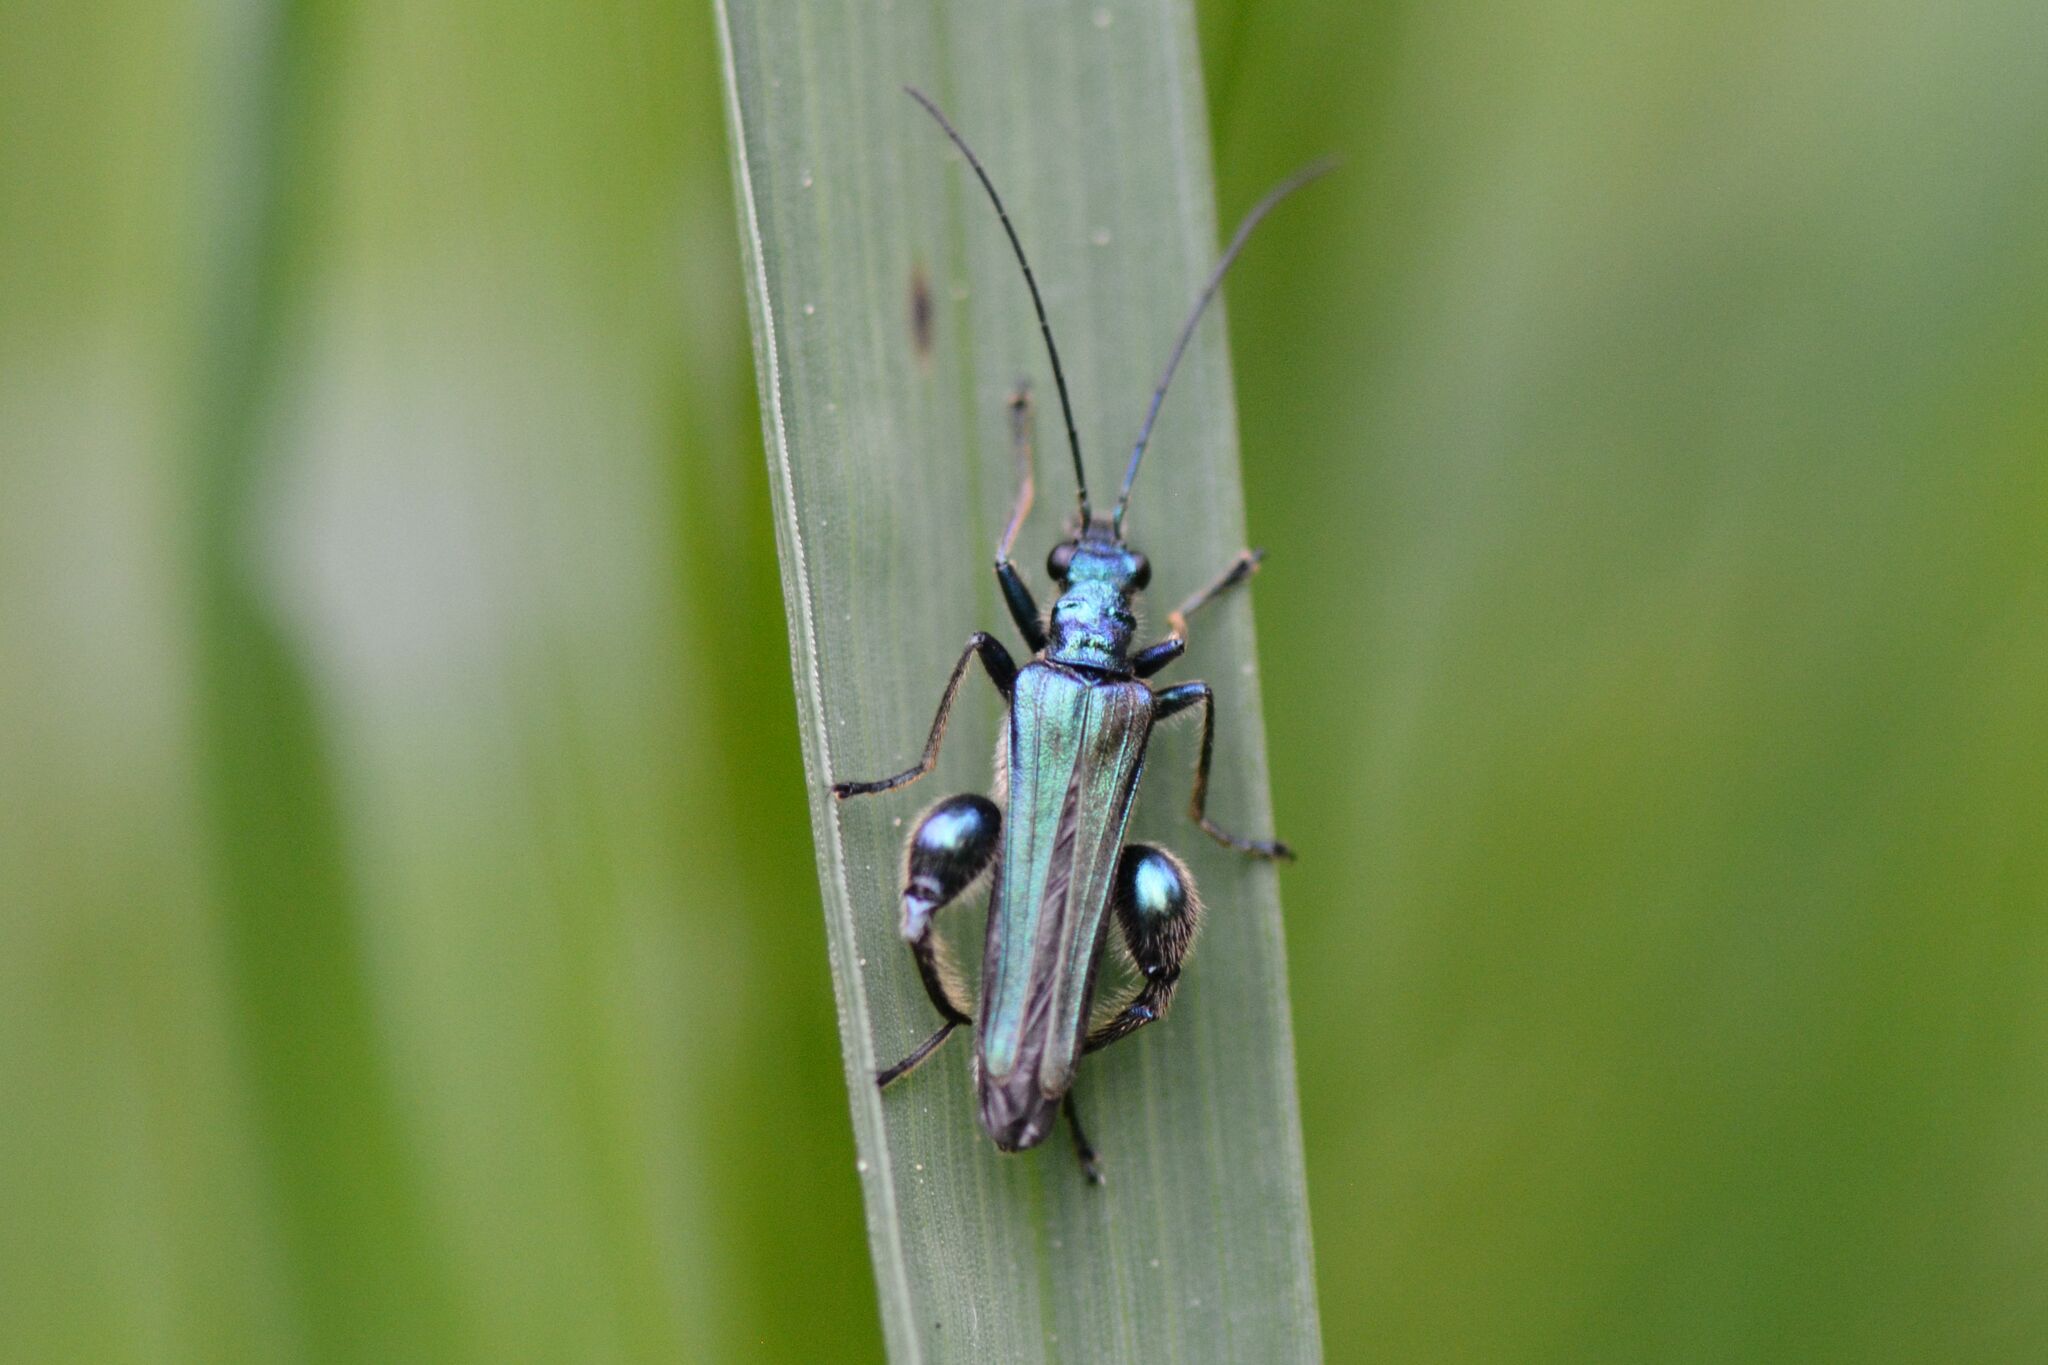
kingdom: Animalia
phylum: Arthropoda
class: Insecta
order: Coleoptera
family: Oedemeridae
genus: Oedemera
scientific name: Oedemera nobilis
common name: Swollen-thighed beetle
